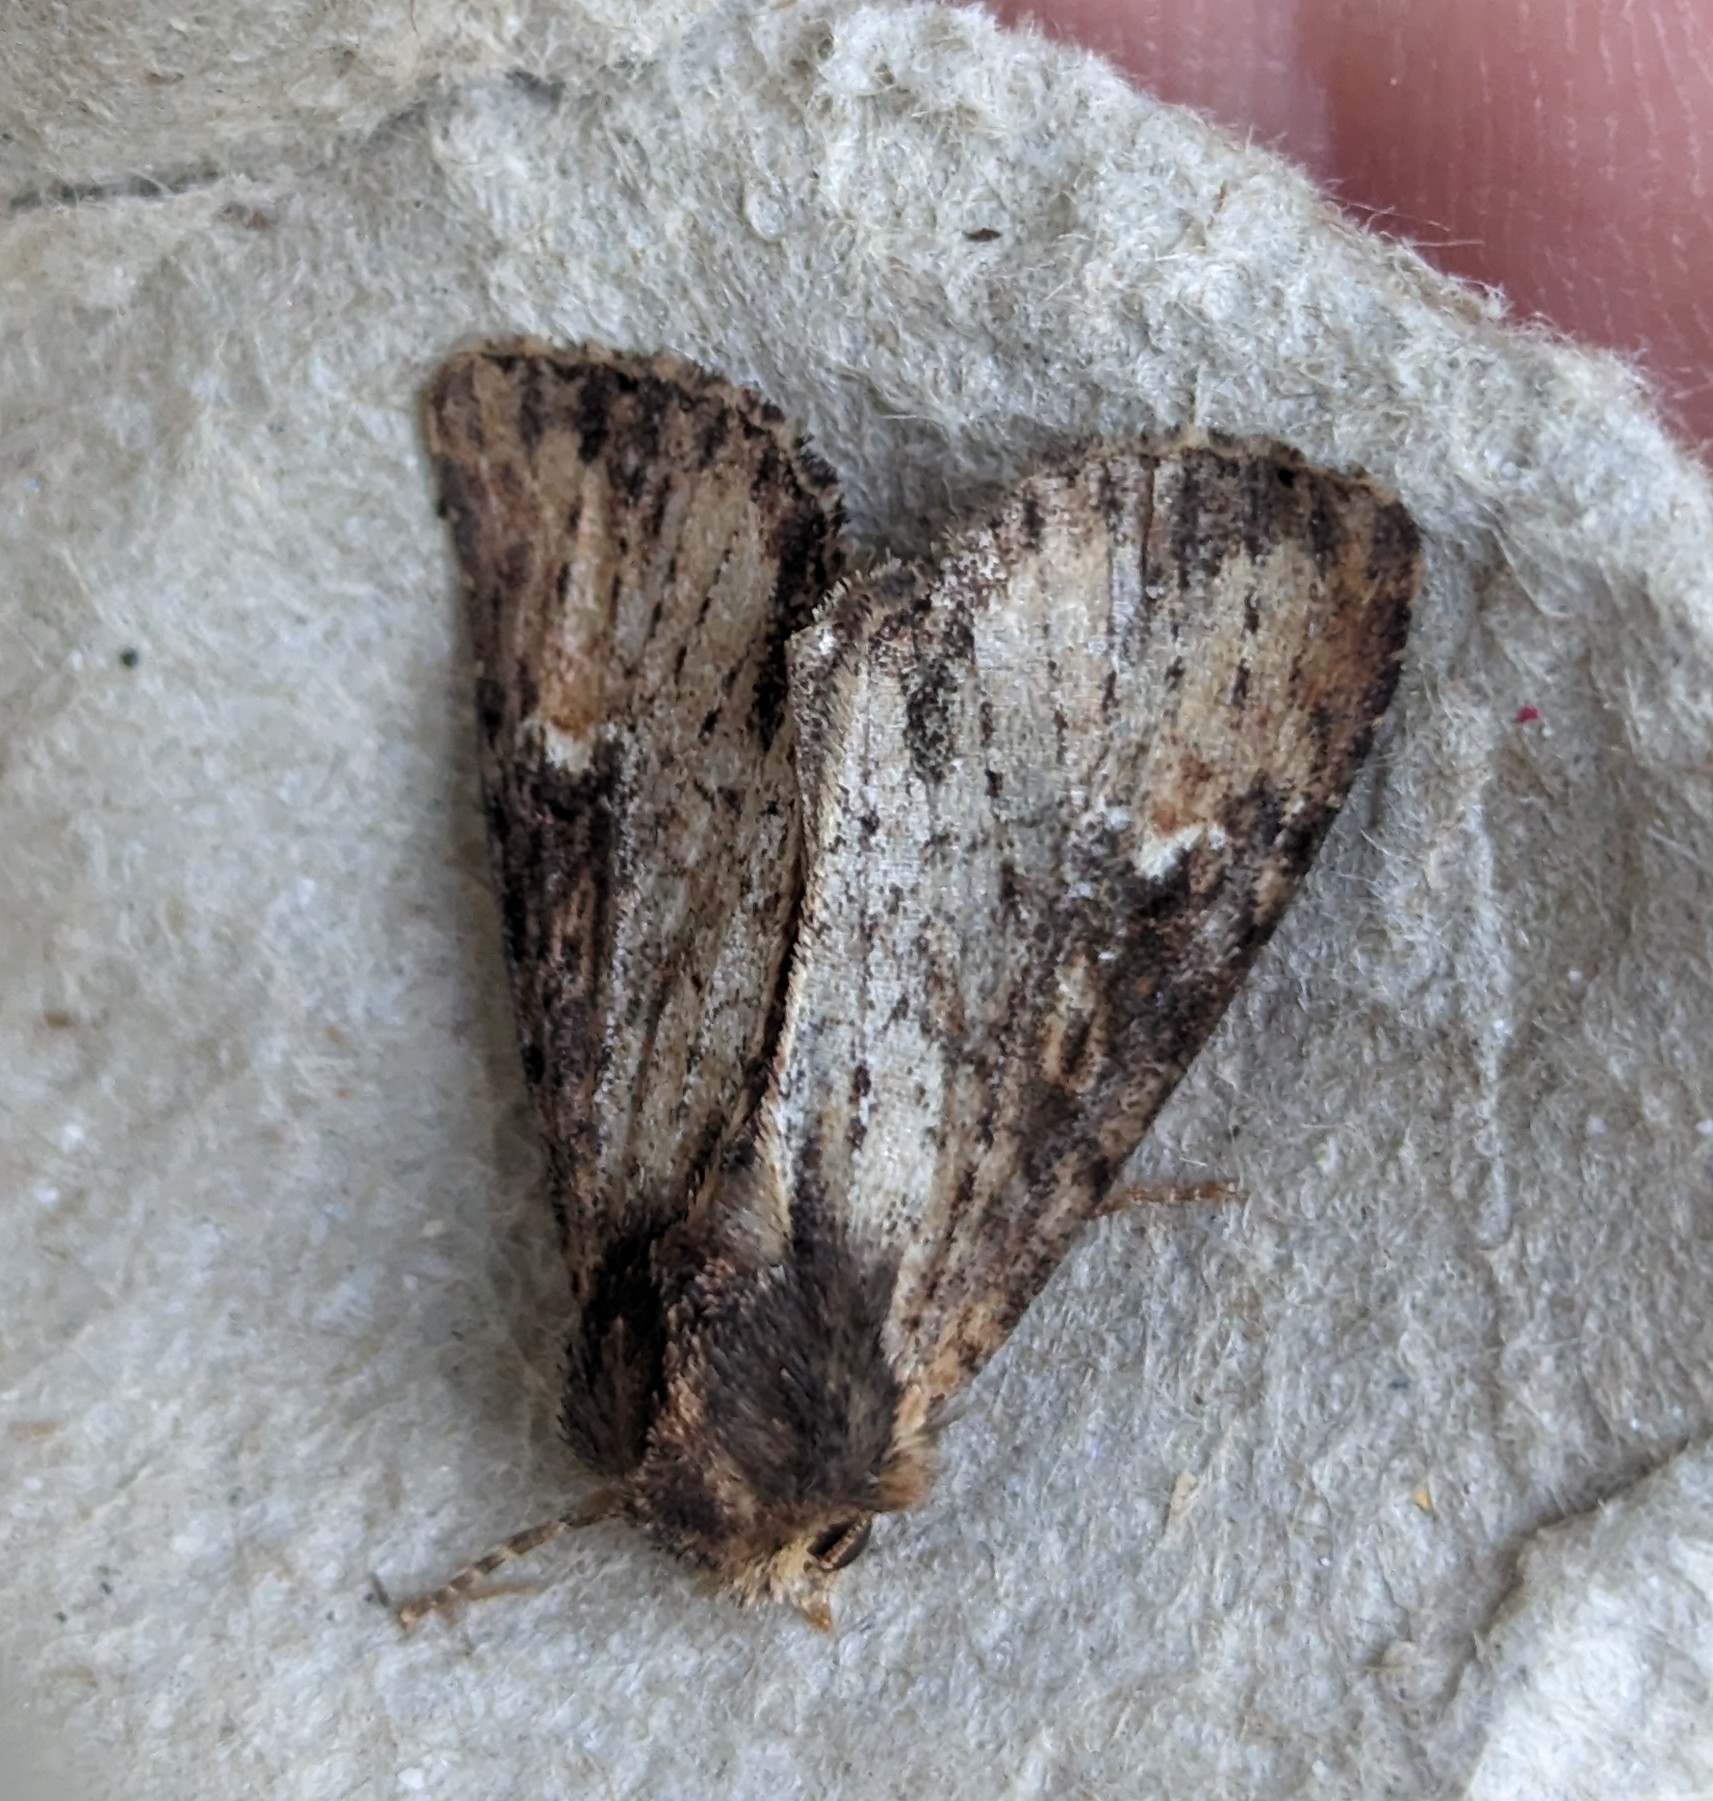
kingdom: Animalia
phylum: Arthropoda
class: Insecta
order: Lepidoptera
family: Noctuidae
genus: Apamea
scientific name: Apamea vultuosa
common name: Airy apamea moth
